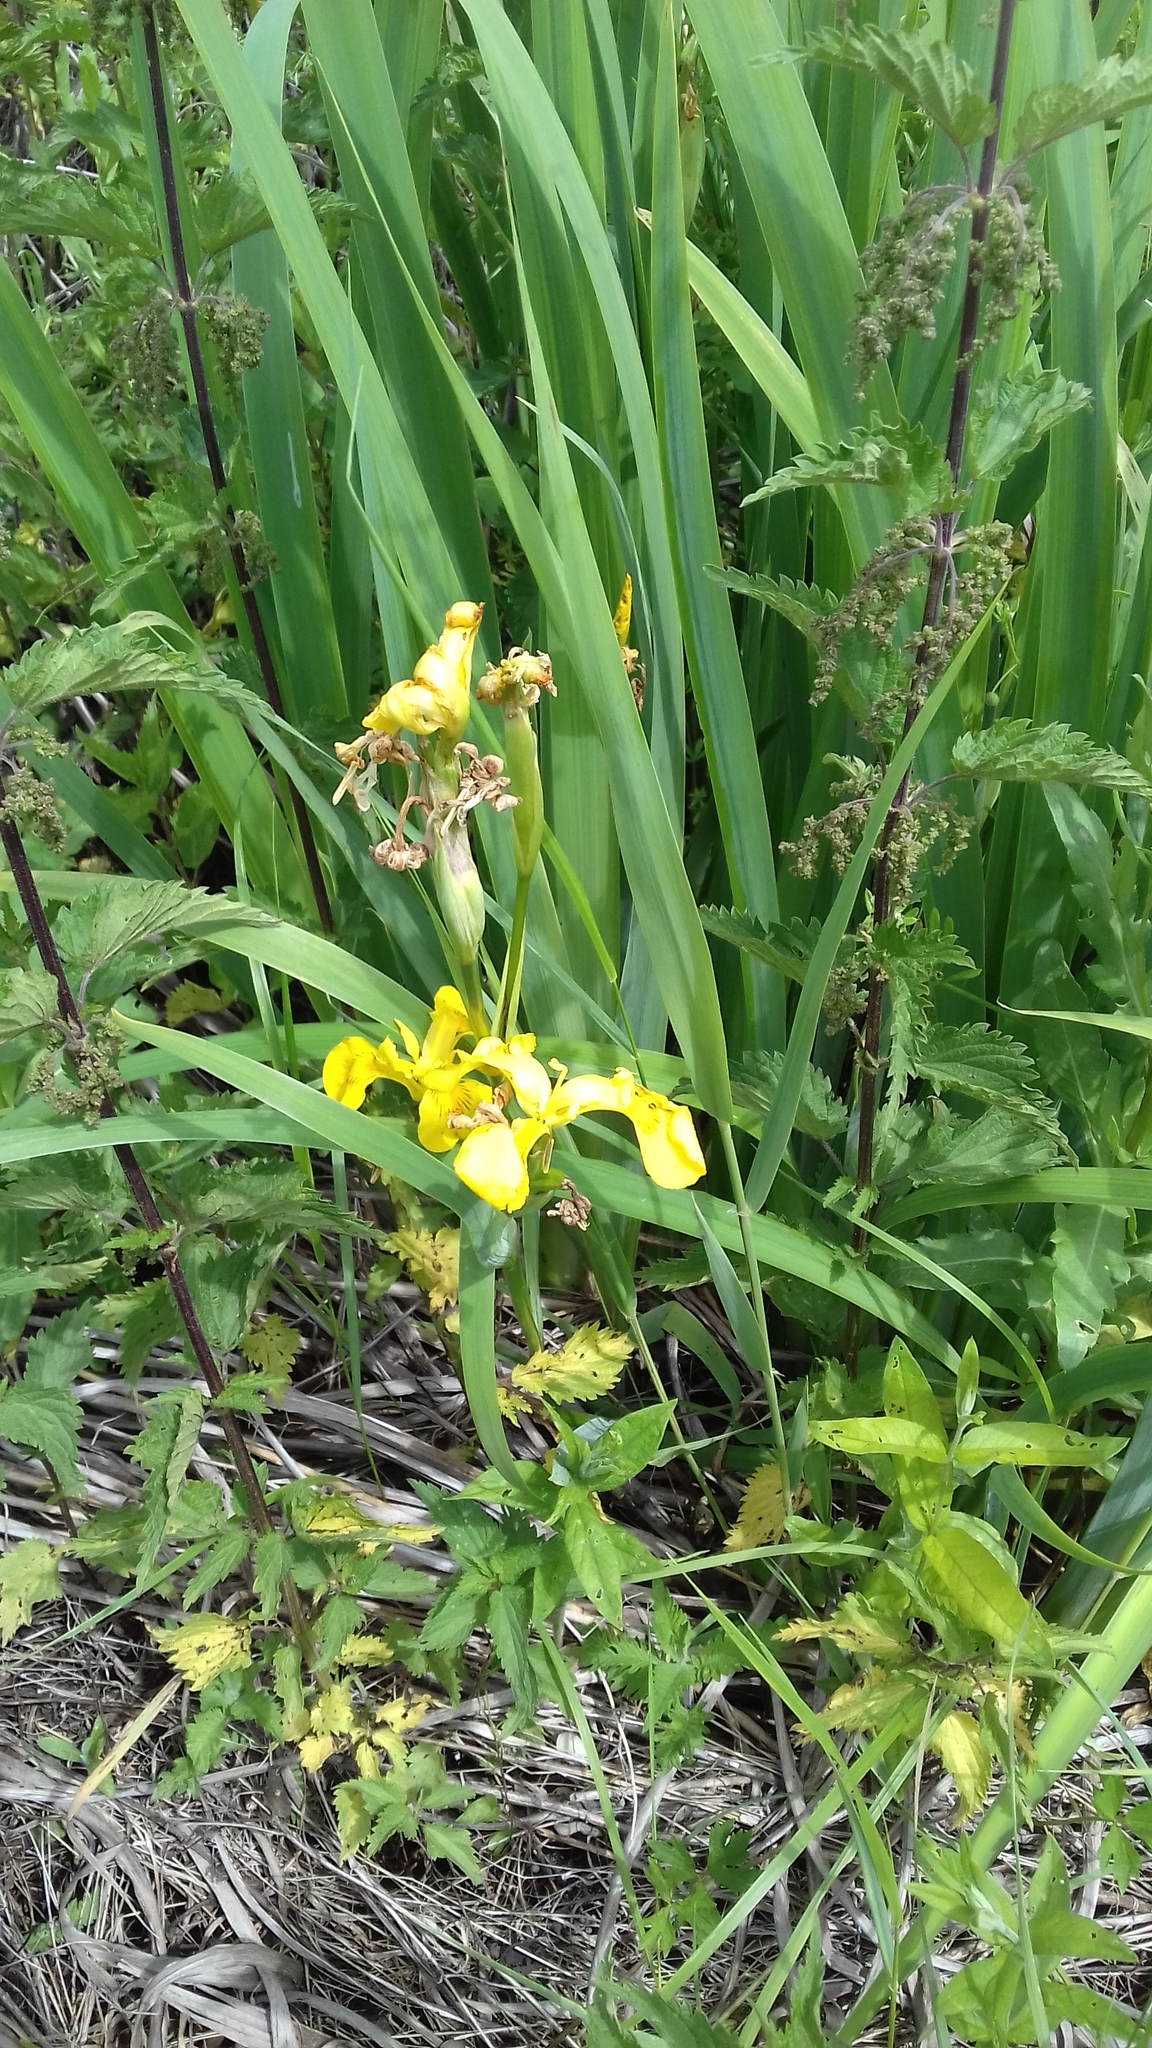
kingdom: Plantae
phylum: Tracheophyta
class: Liliopsida
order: Asparagales
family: Iridaceae
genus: Iris
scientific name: Iris pseudacorus
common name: Yellow flag
